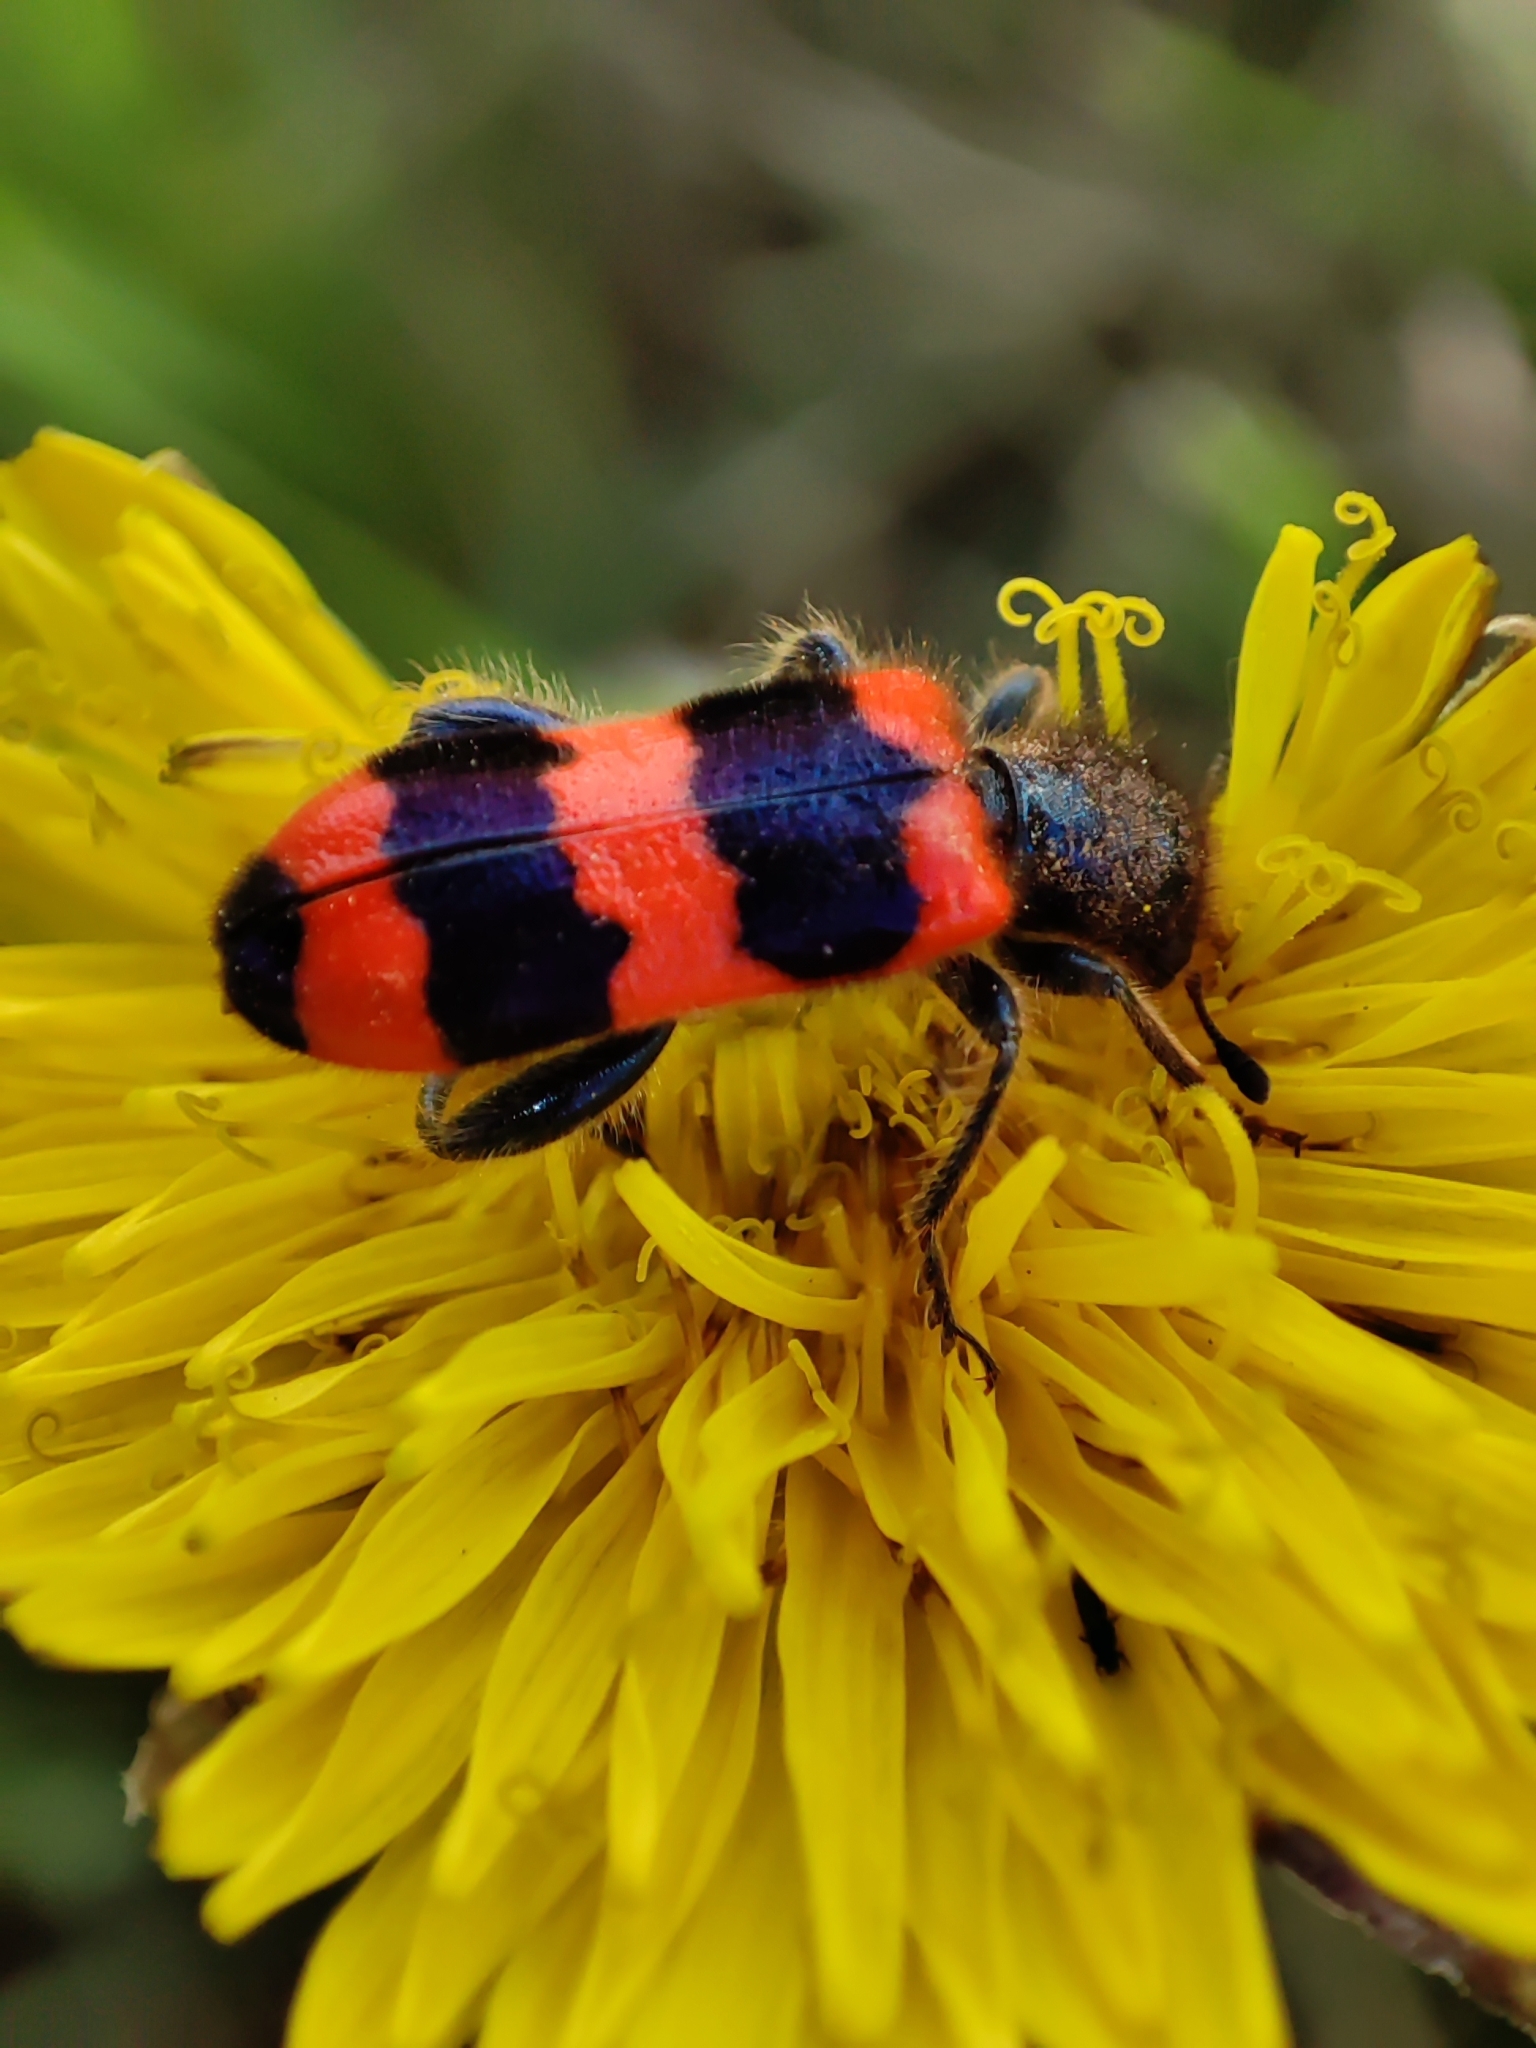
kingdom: Animalia
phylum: Arthropoda
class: Insecta
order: Coleoptera
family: Cleridae
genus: Trichodes
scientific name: Trichodes apiarius
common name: Bee-eating beetle
